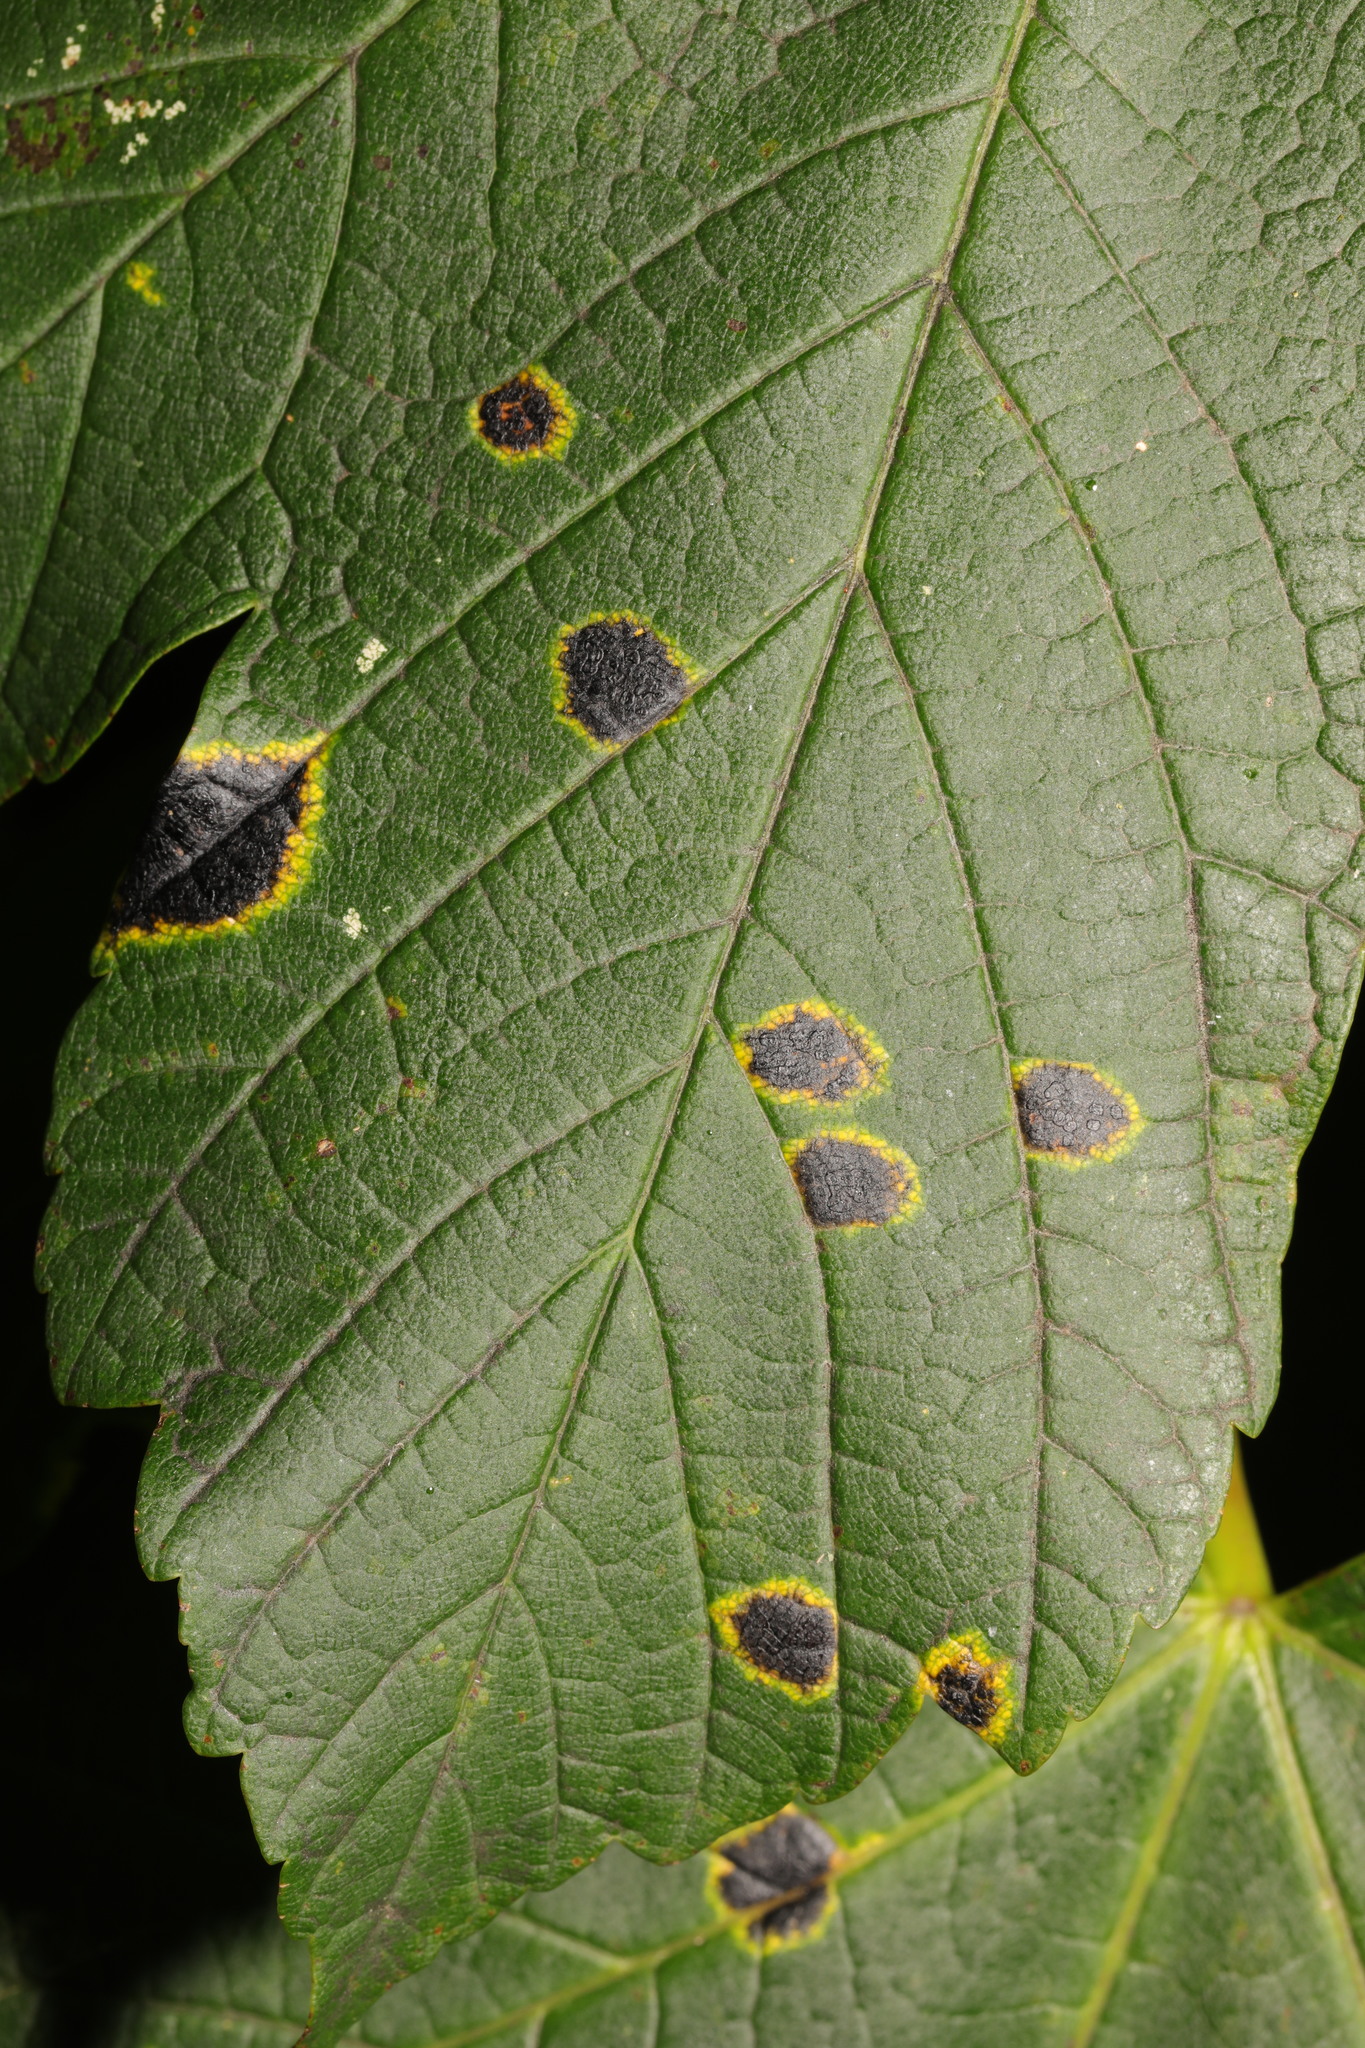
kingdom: Fungi
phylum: Ascomycota
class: Leotiomycetes
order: Rhytismatales
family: Rhytismataceae
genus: Rhytisma
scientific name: Rhytisma acerinum
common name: European tar spot
